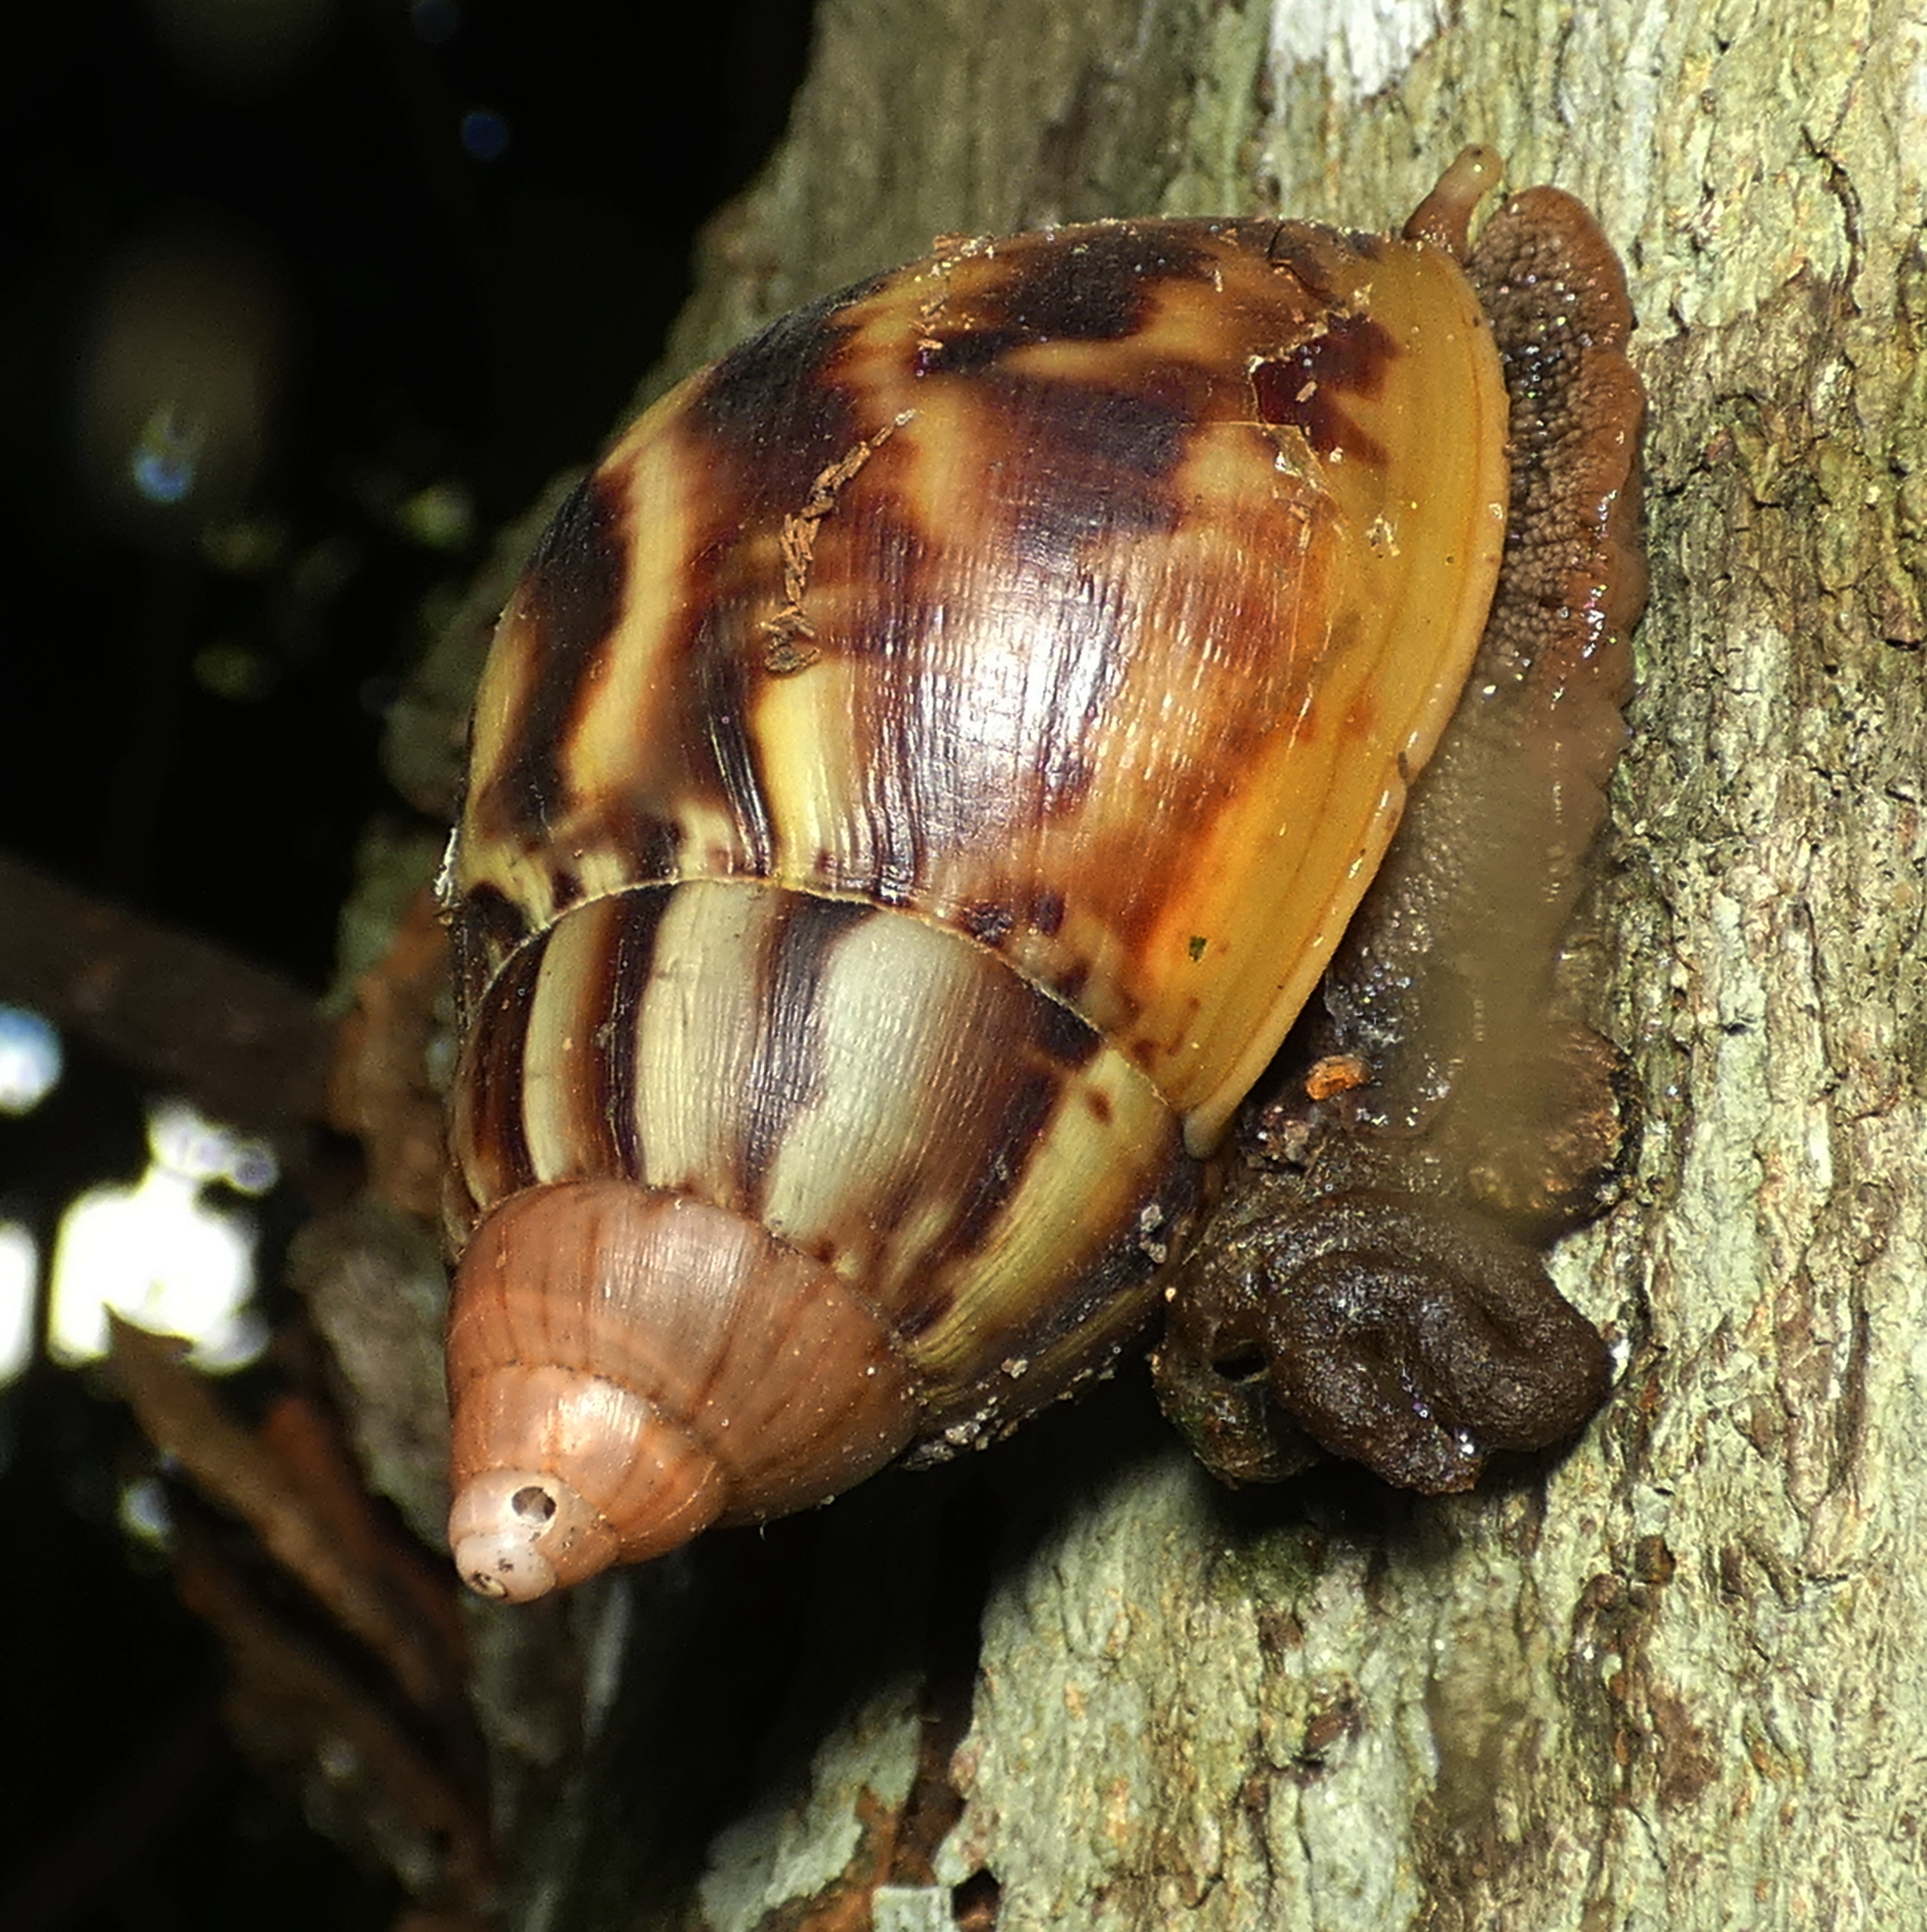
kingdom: Animalia
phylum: Mollusca
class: Gastropoda
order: Stylommatophora
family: Achatinidae
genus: Lissachatina
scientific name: Lissachatina fulica
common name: Giant african snail
